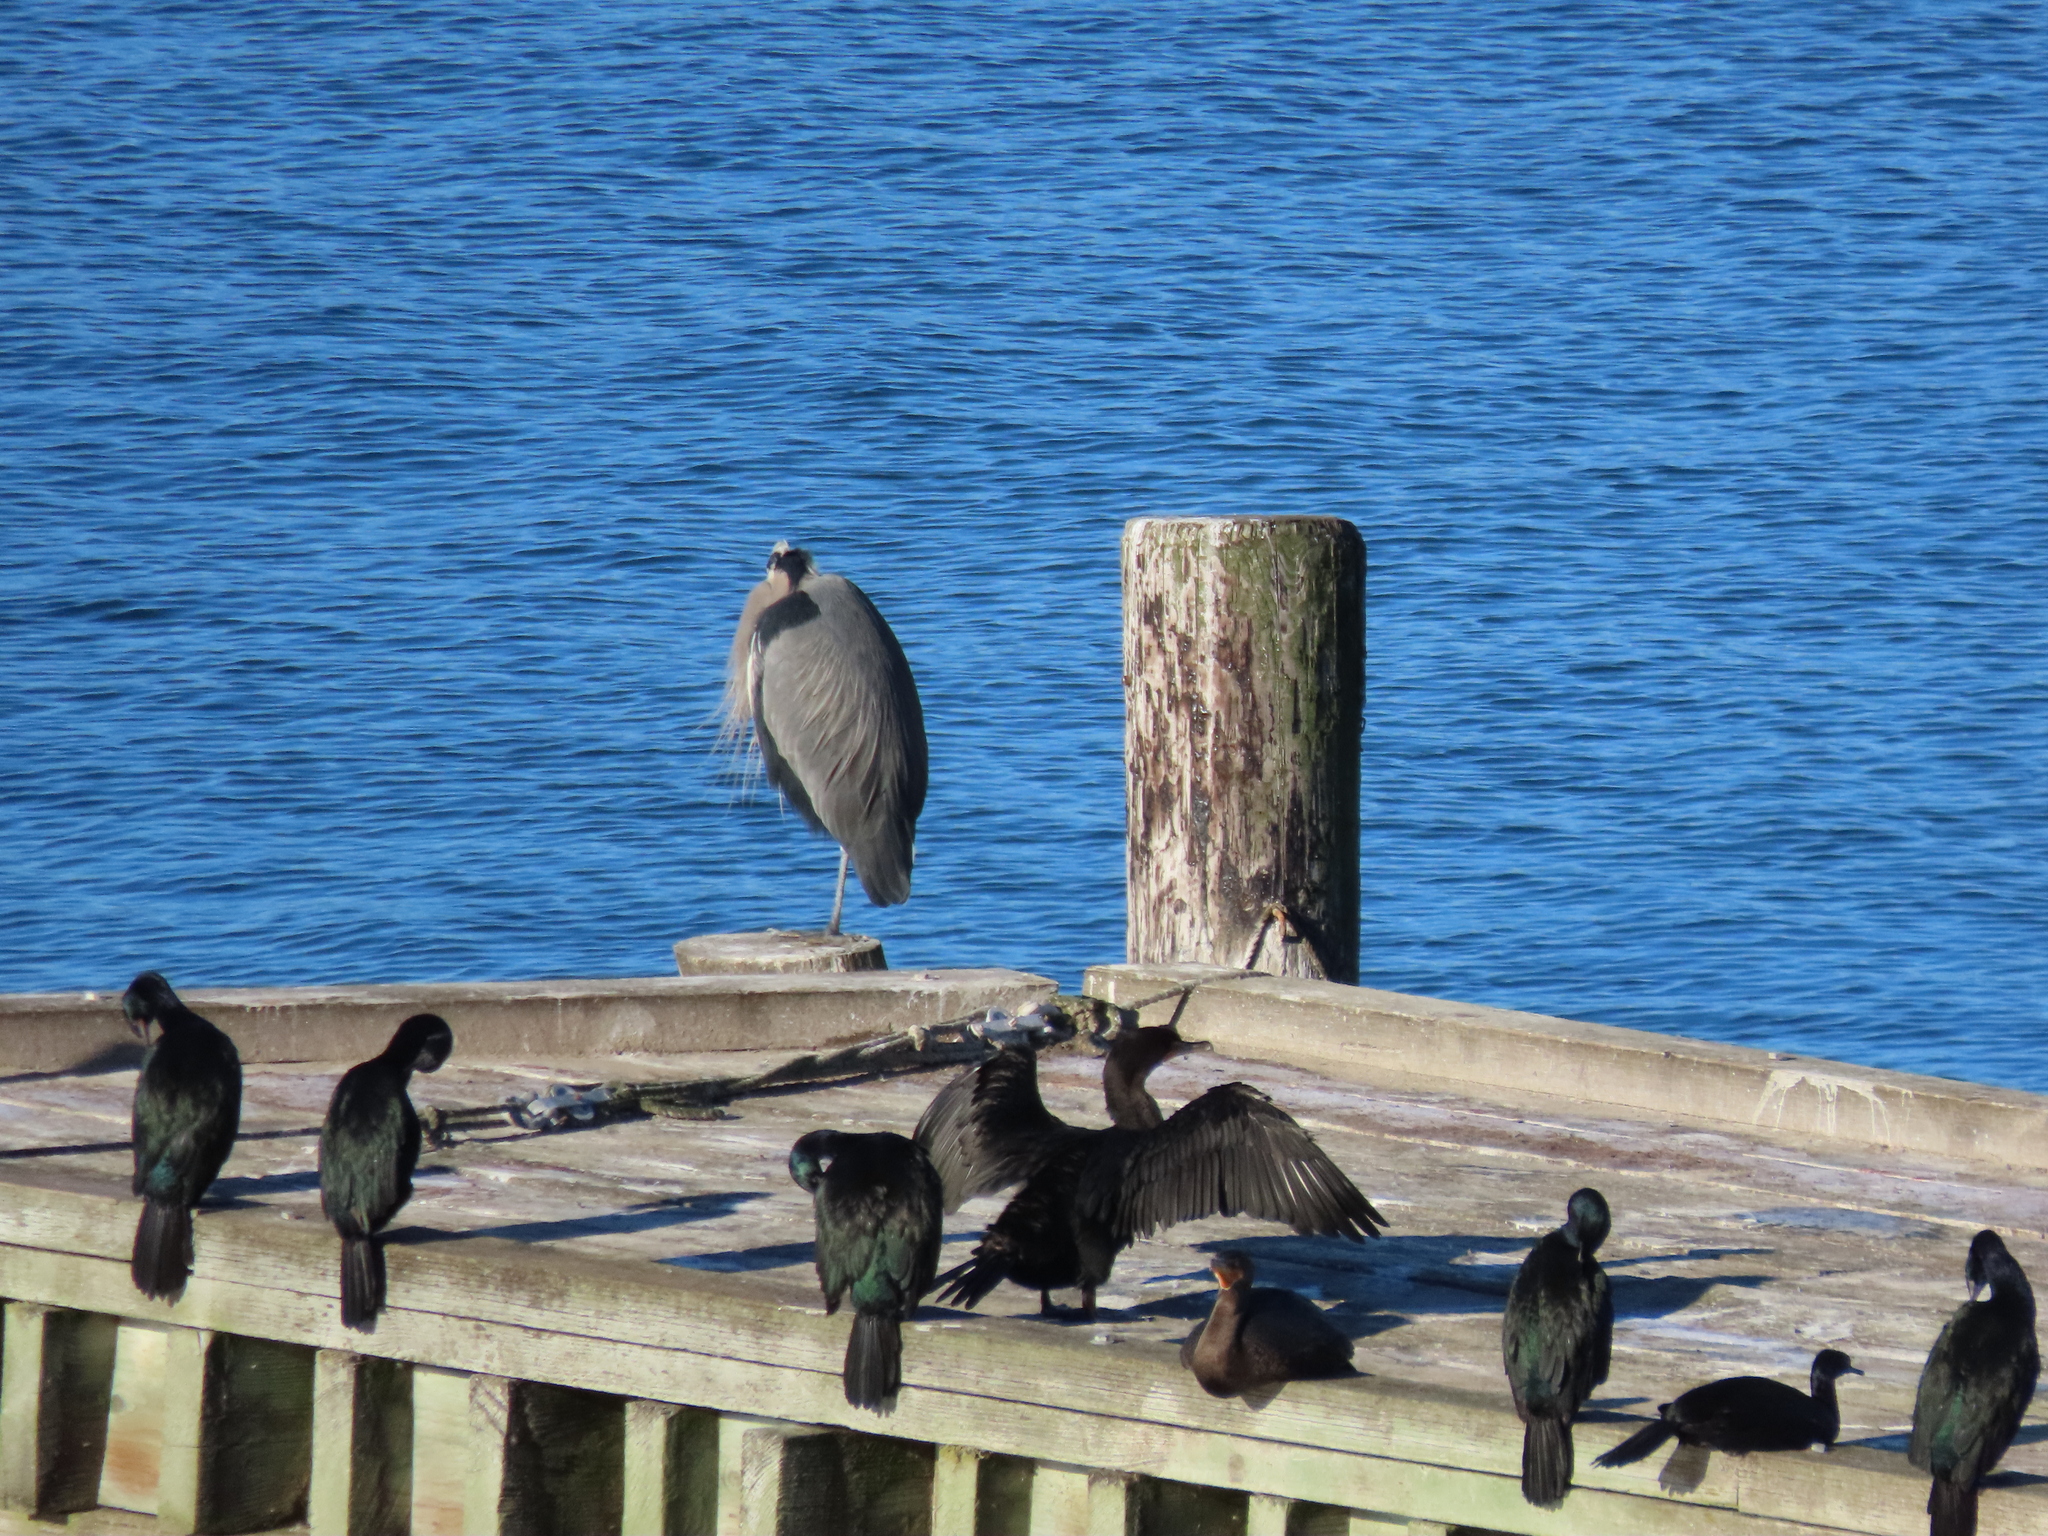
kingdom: Animalia
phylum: Chordata
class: Aves
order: Suliformes
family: Phalacrocoracidae
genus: Phalacrocorax
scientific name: Phalacrocorax auritus
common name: Double-crested cormorant
